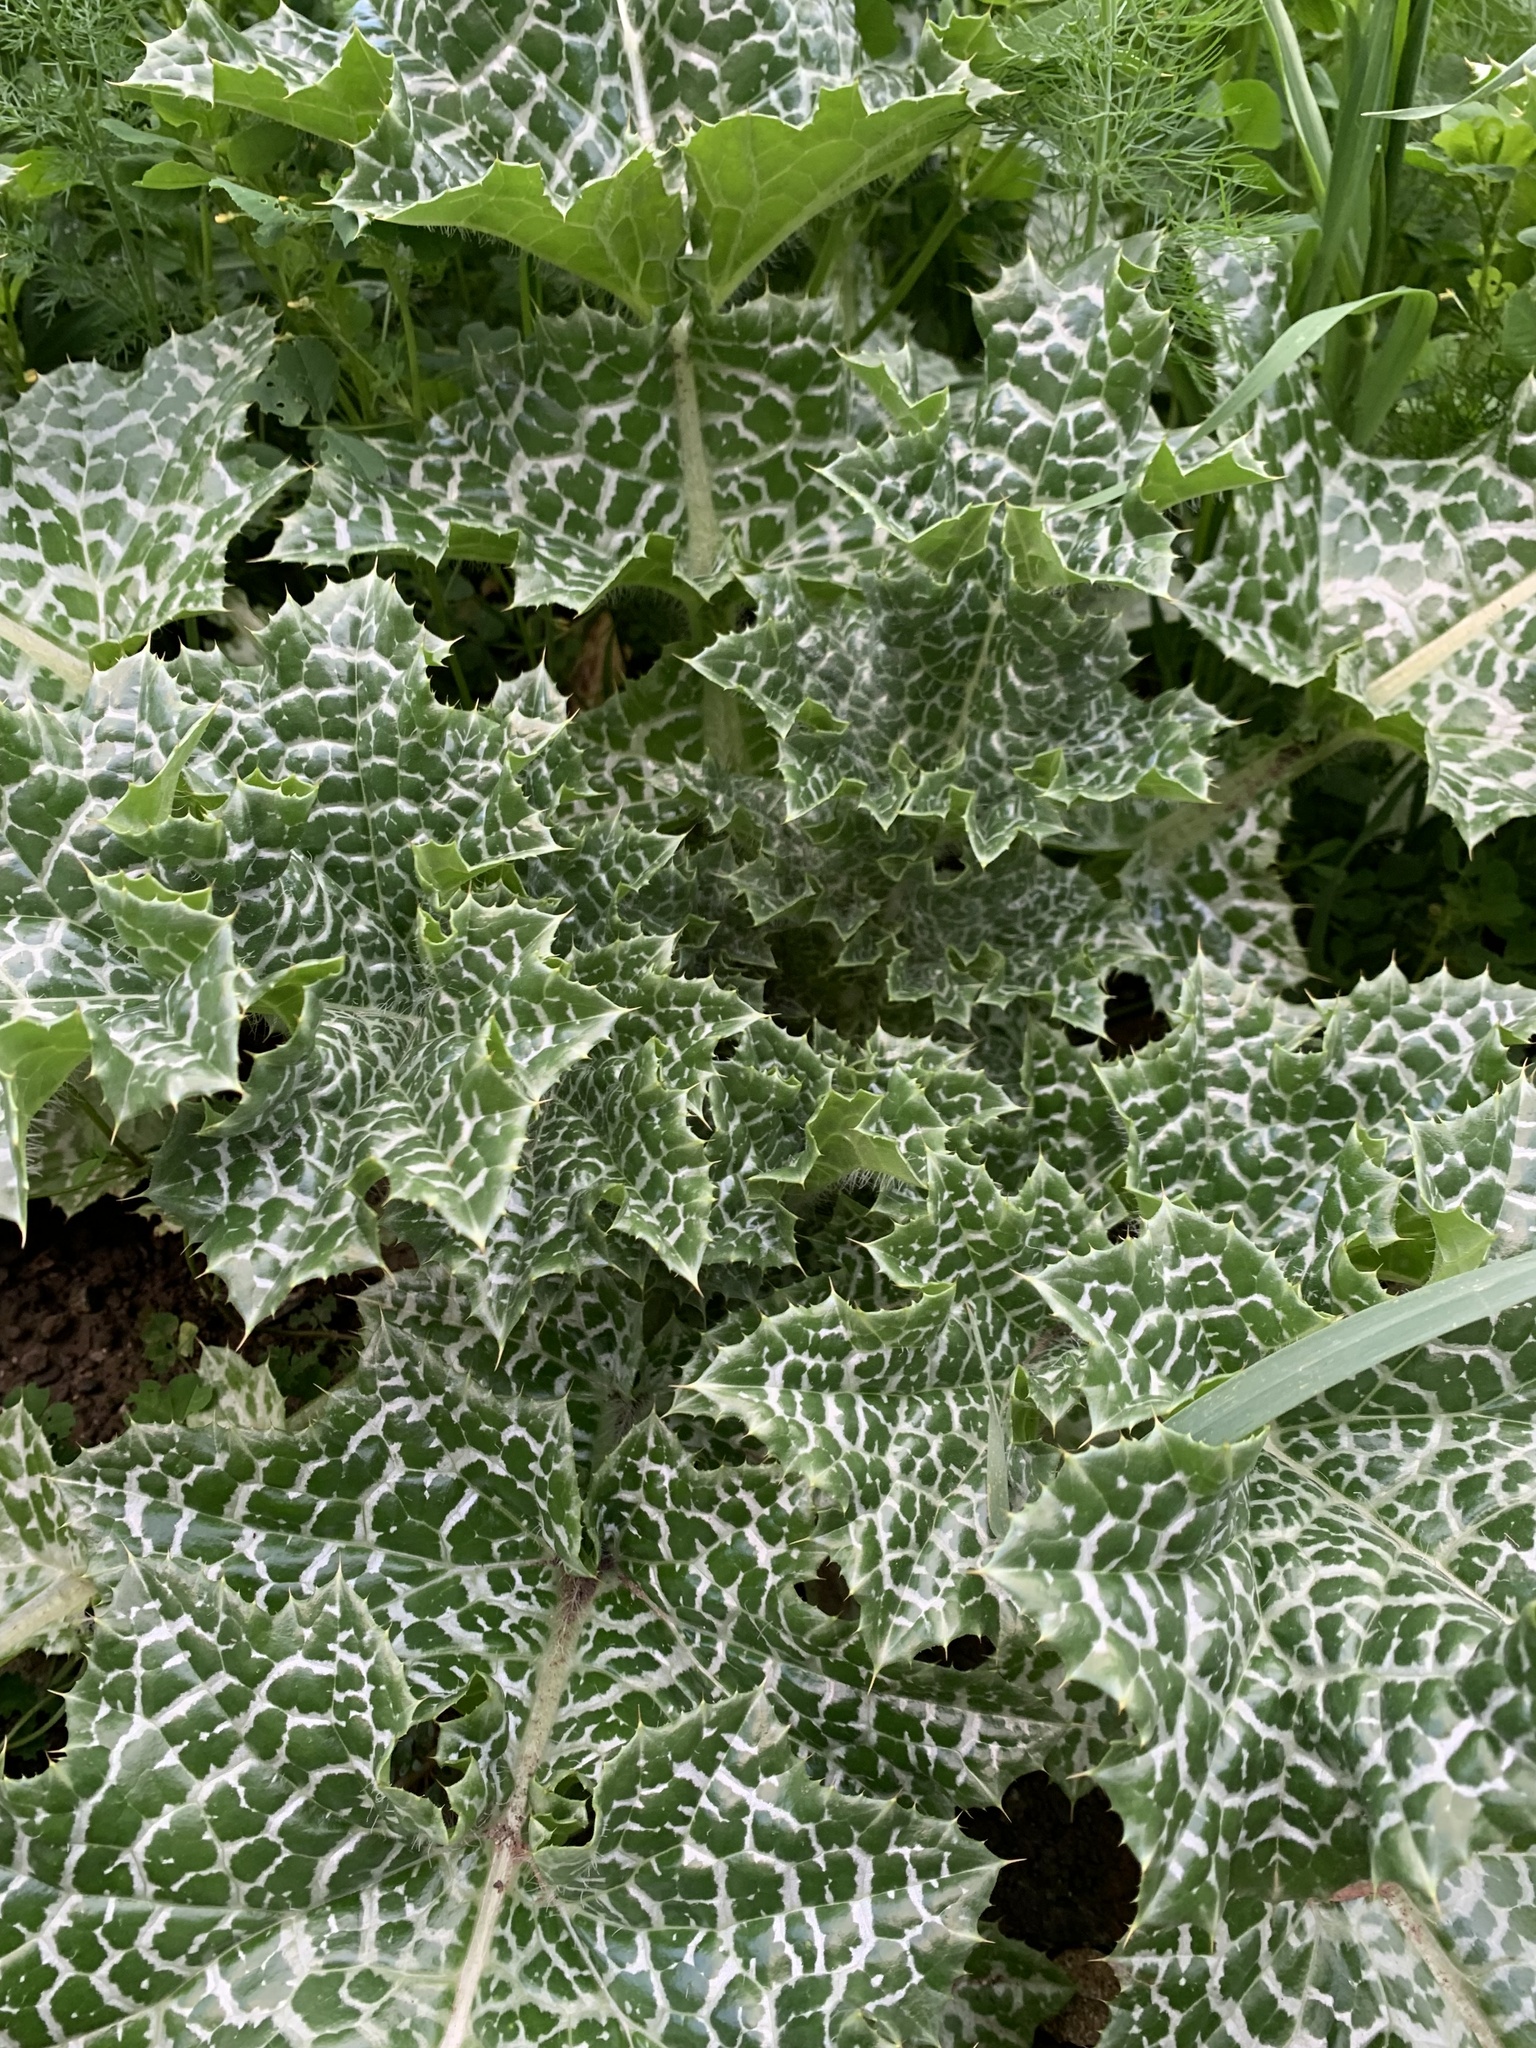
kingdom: Plantae
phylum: Tracheophyta
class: Magnoliopsida
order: Asterales
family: Asteraceae
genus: Silybum
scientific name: Silybum marianum
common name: Milk thistle
